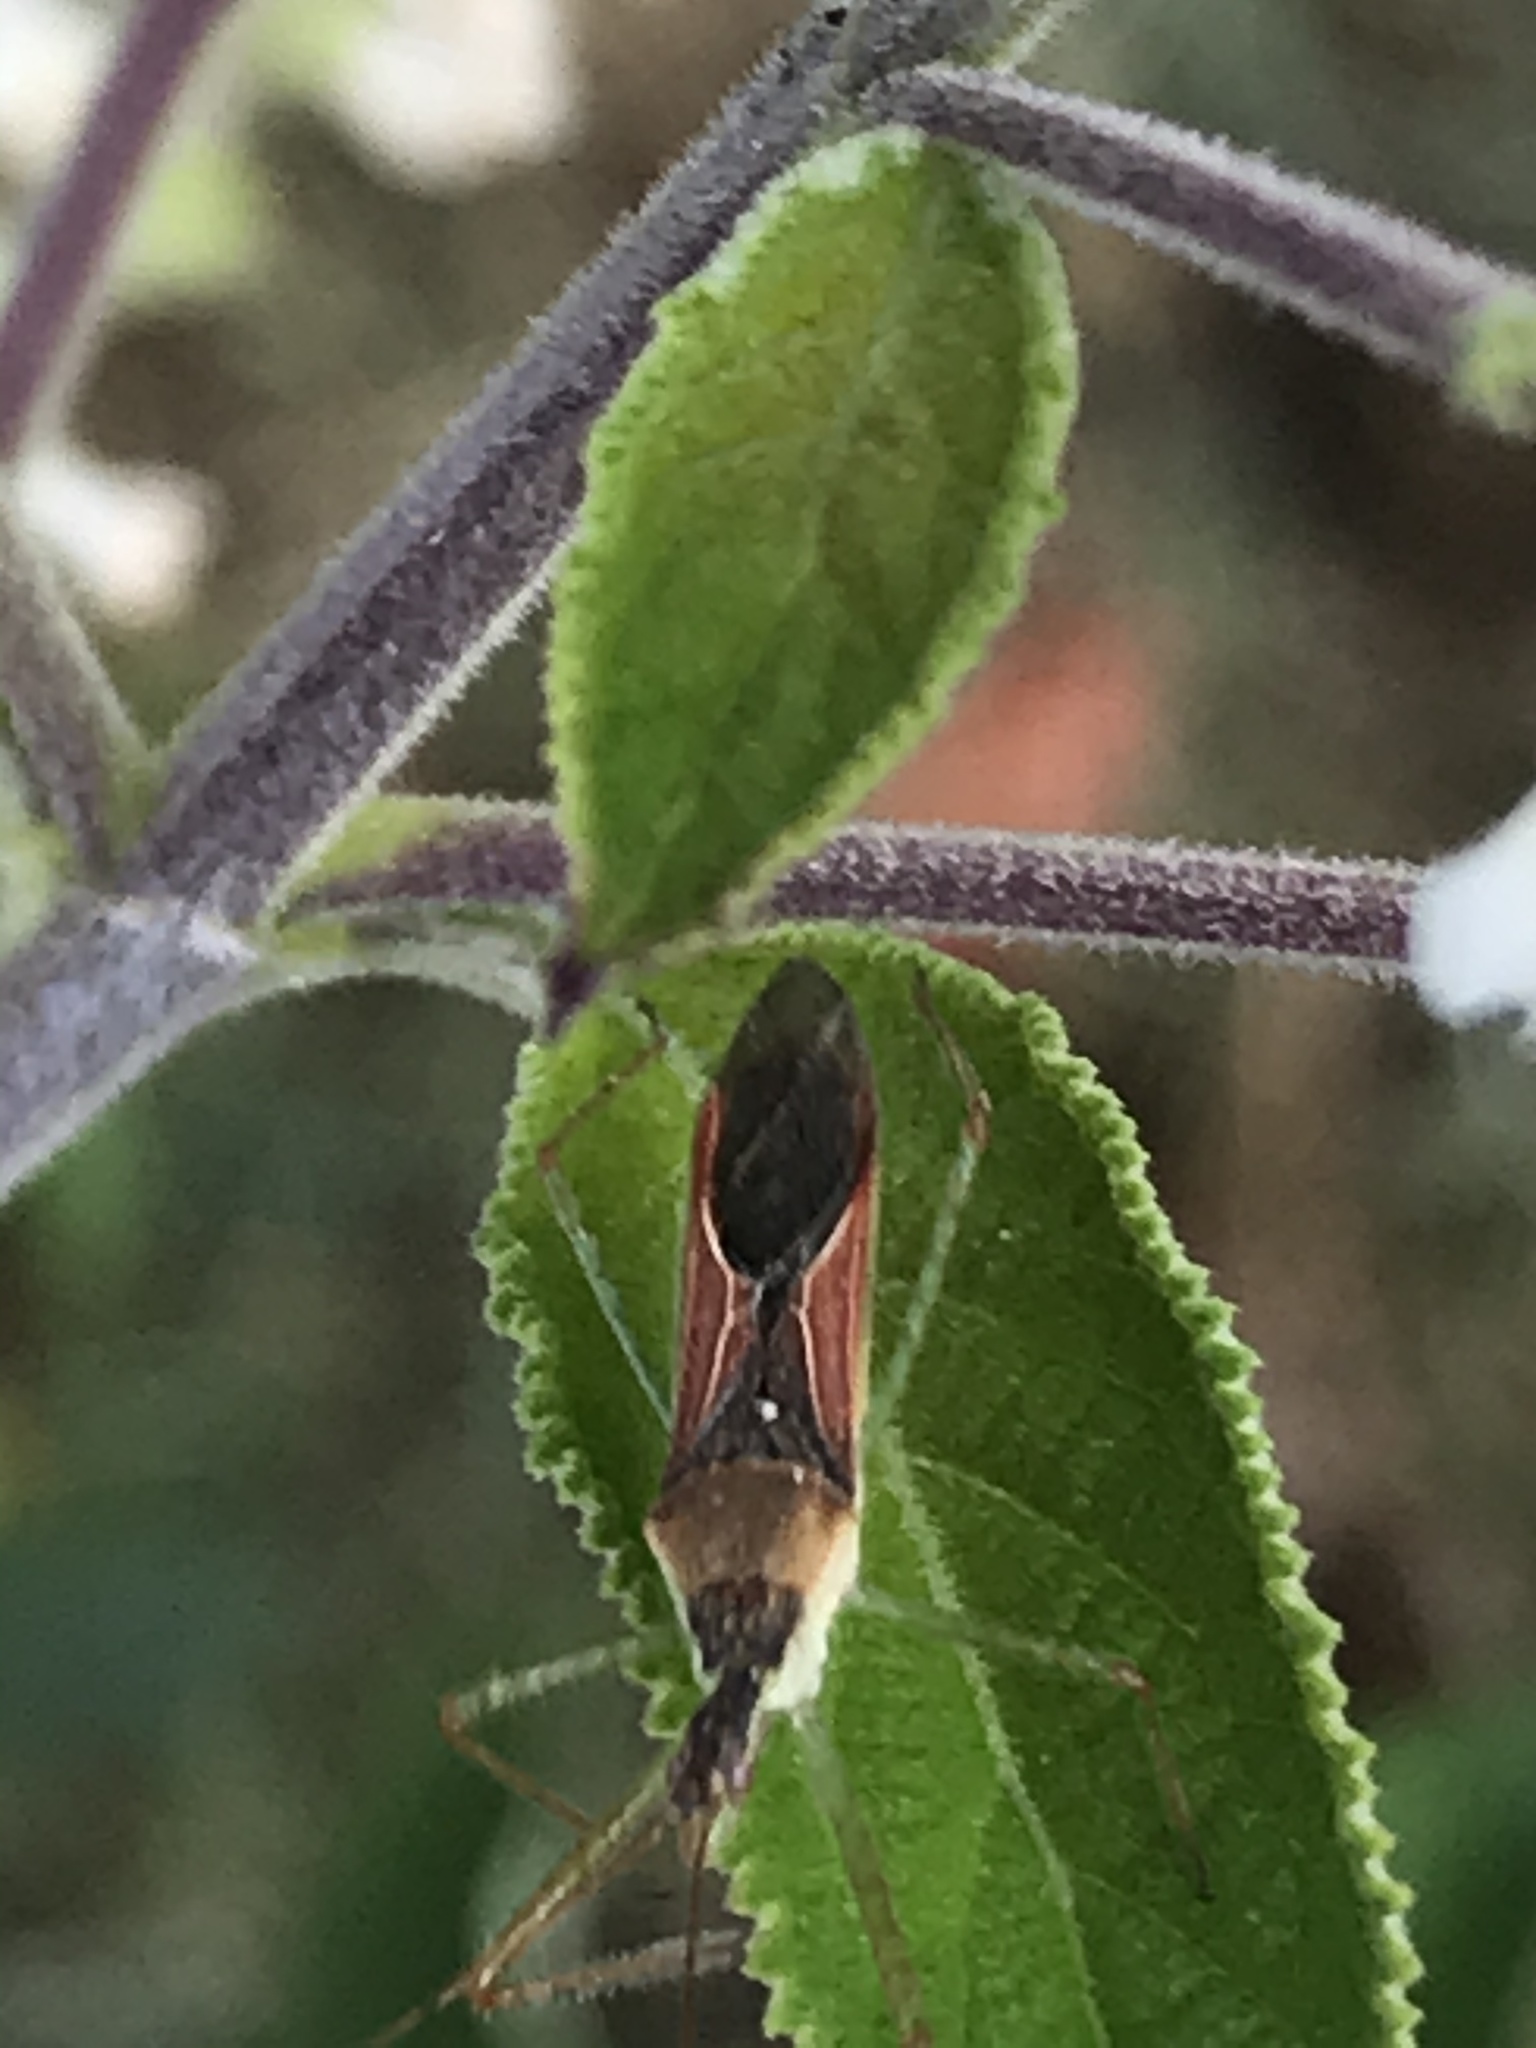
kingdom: Animalia
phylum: Arthropoda
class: Insecta
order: Hemiptera
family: Reduviidae
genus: Zelus
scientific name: Zelus renardii
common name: Assassin bug
